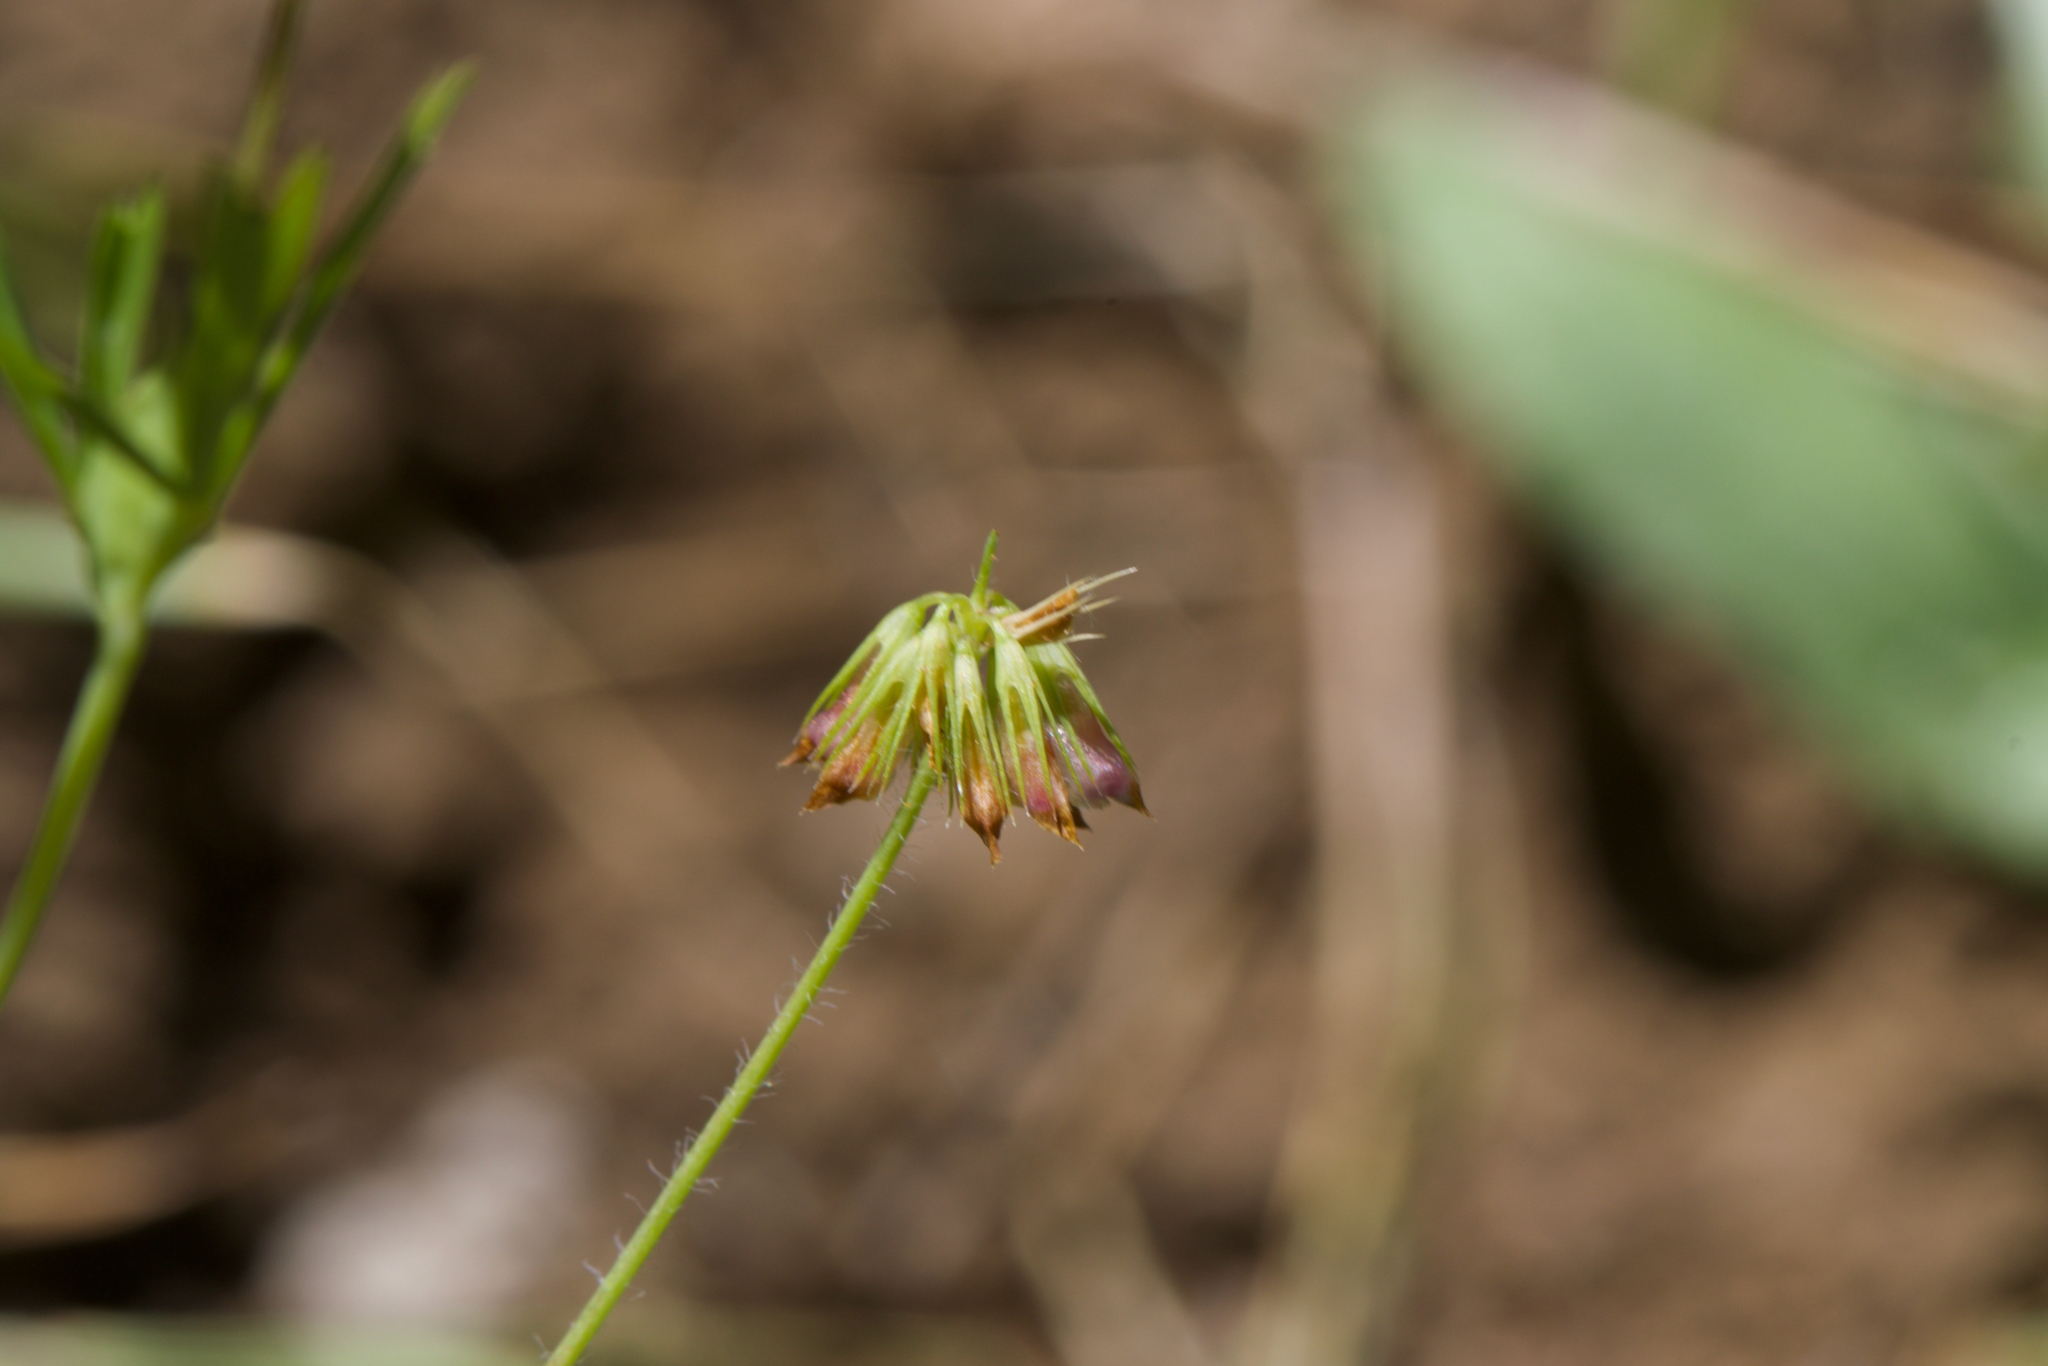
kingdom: Plantae
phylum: Tracheophyta
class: Magnoliopsida
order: Fabales
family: Fabaceae
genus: Trifolium
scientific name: Trifolium bifidum
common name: Notch-leaf clover
